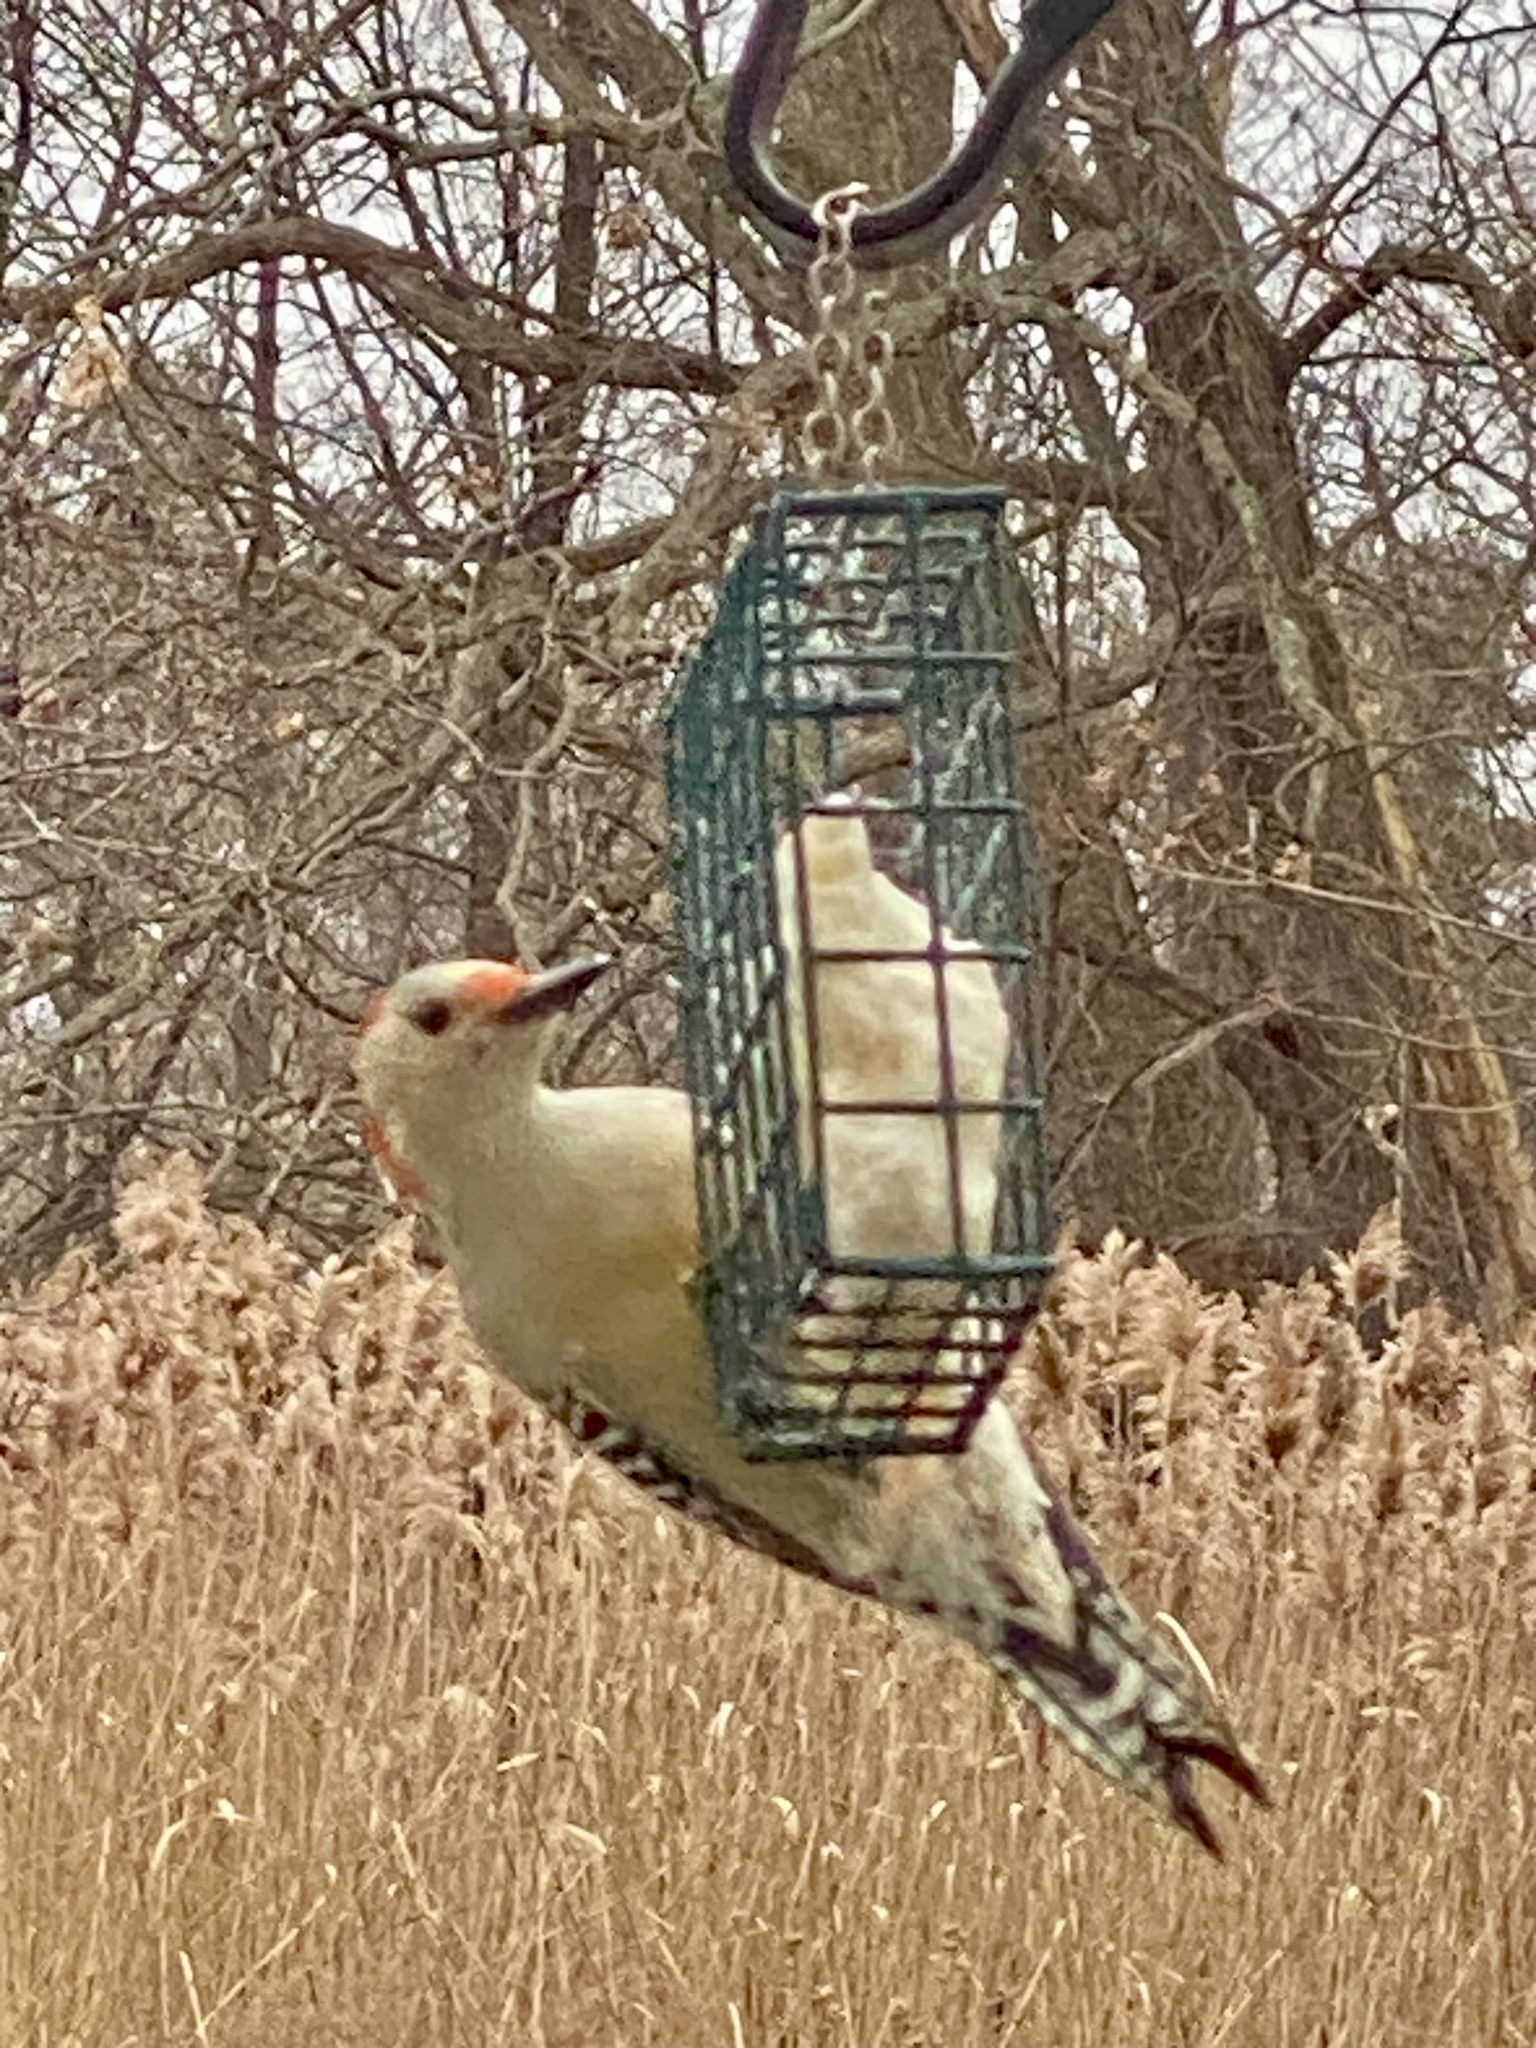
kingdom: Animalia
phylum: Chordata
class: Aves
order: Piciformes
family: Picidae
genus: Melanerpes
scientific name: Melanerpes carolinus
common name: Red-bellied woodpecker
